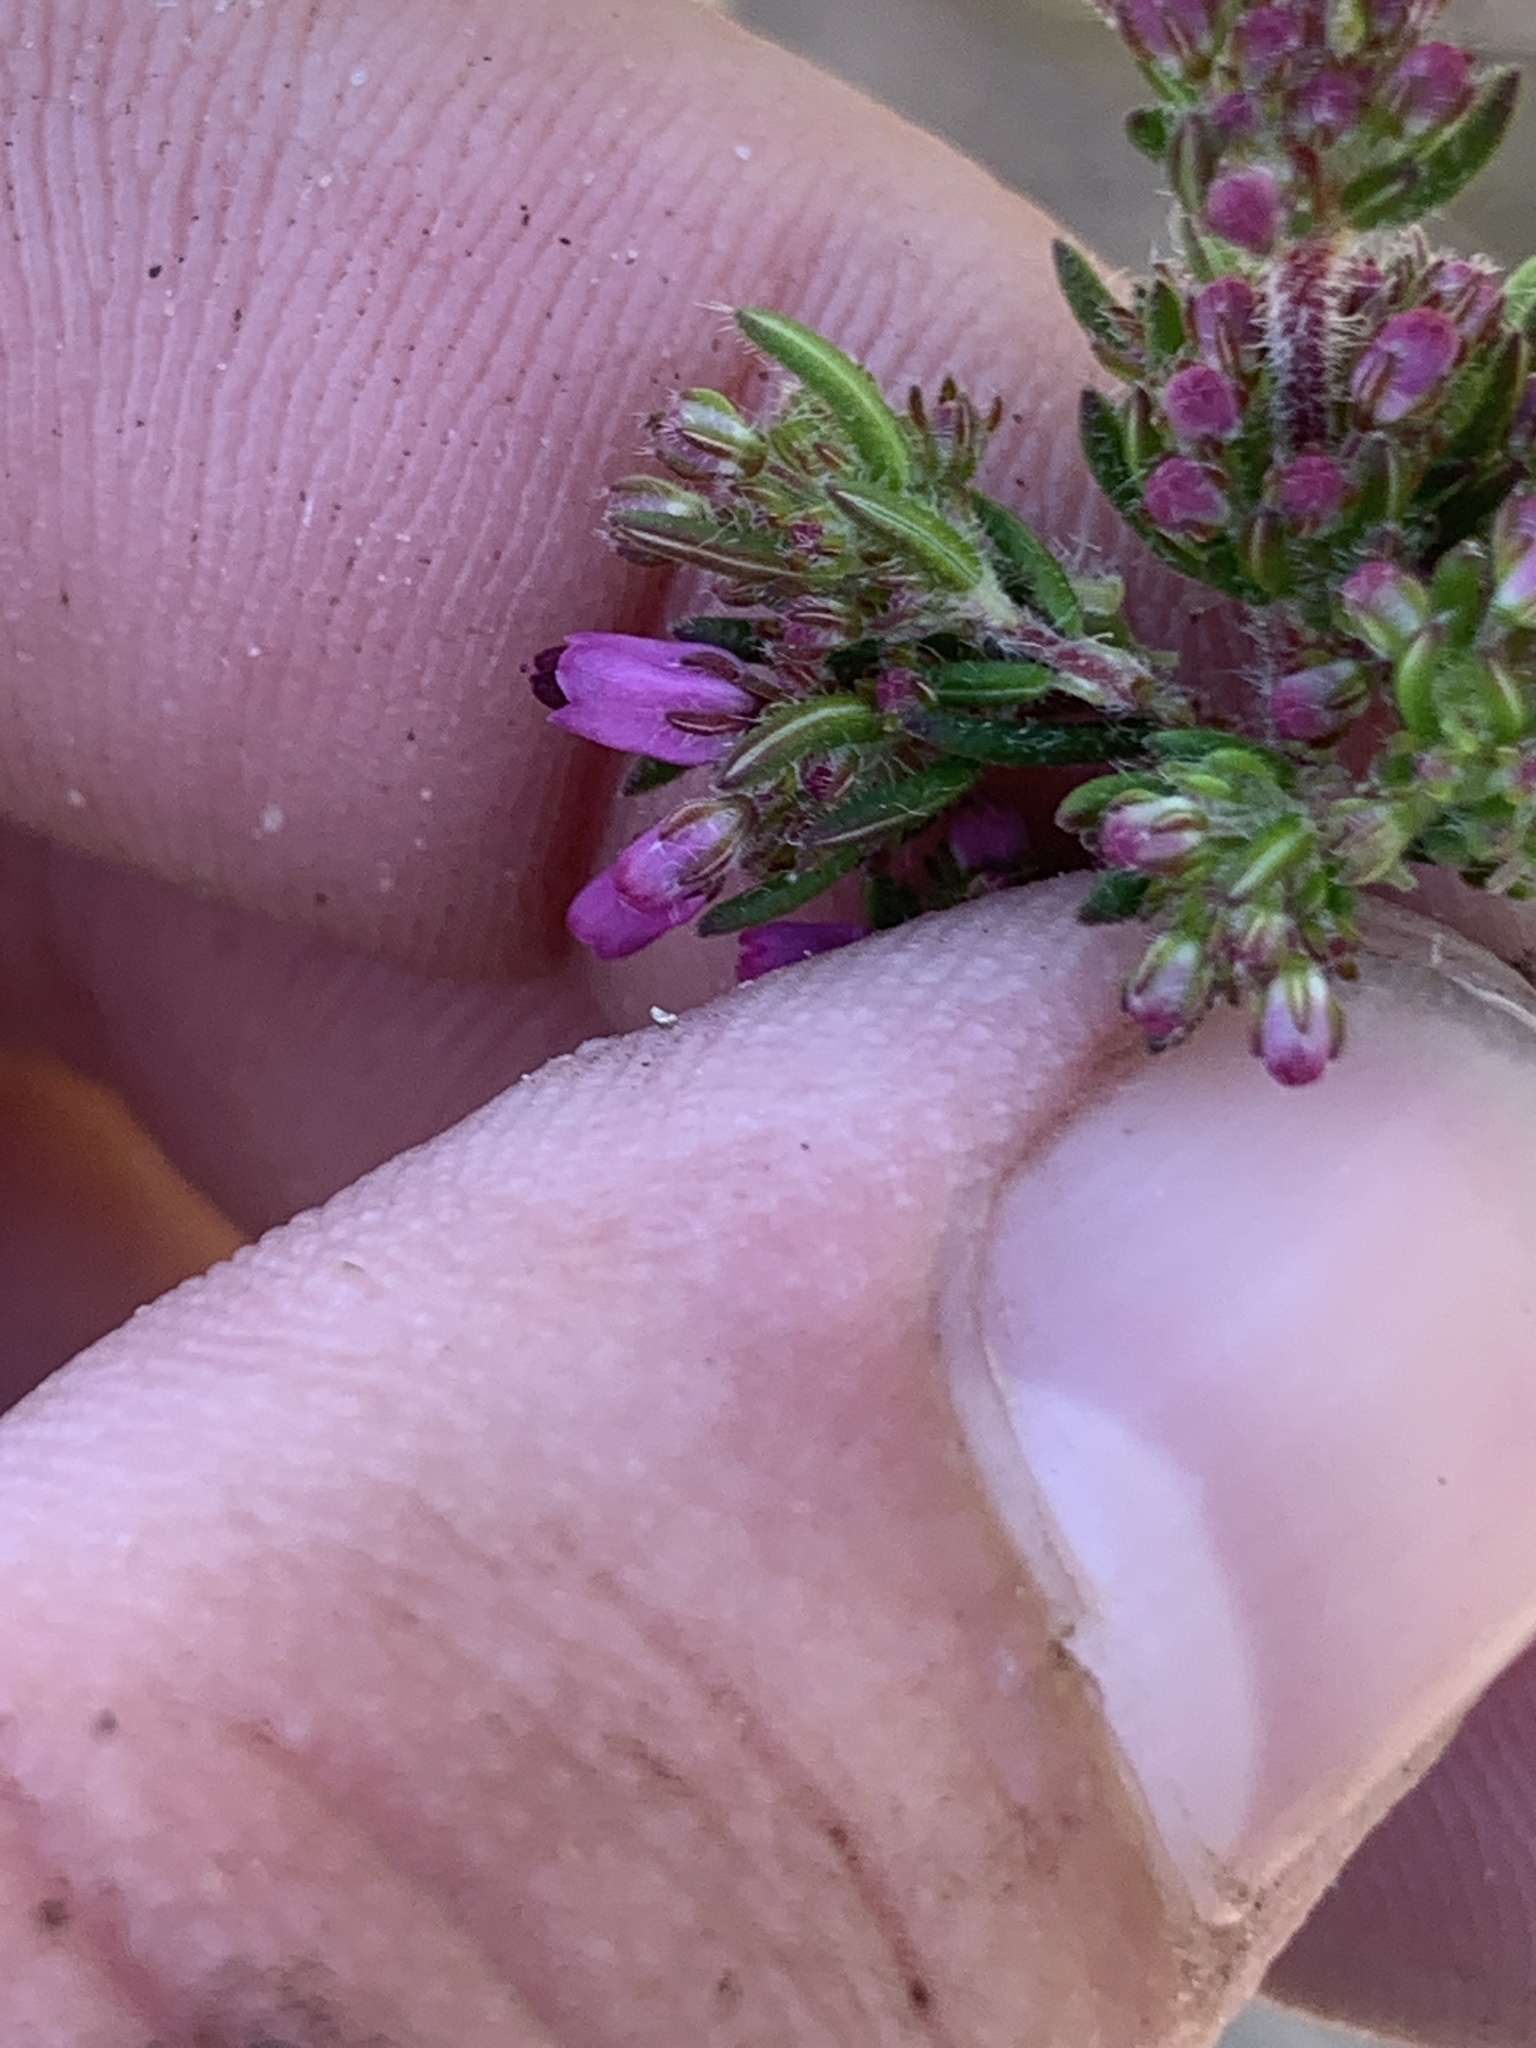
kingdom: Plantae
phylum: Tracheophyta
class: Magnoliopsida
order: Ericales
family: Ericaceae
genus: Erica
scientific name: Erica nudiflora
